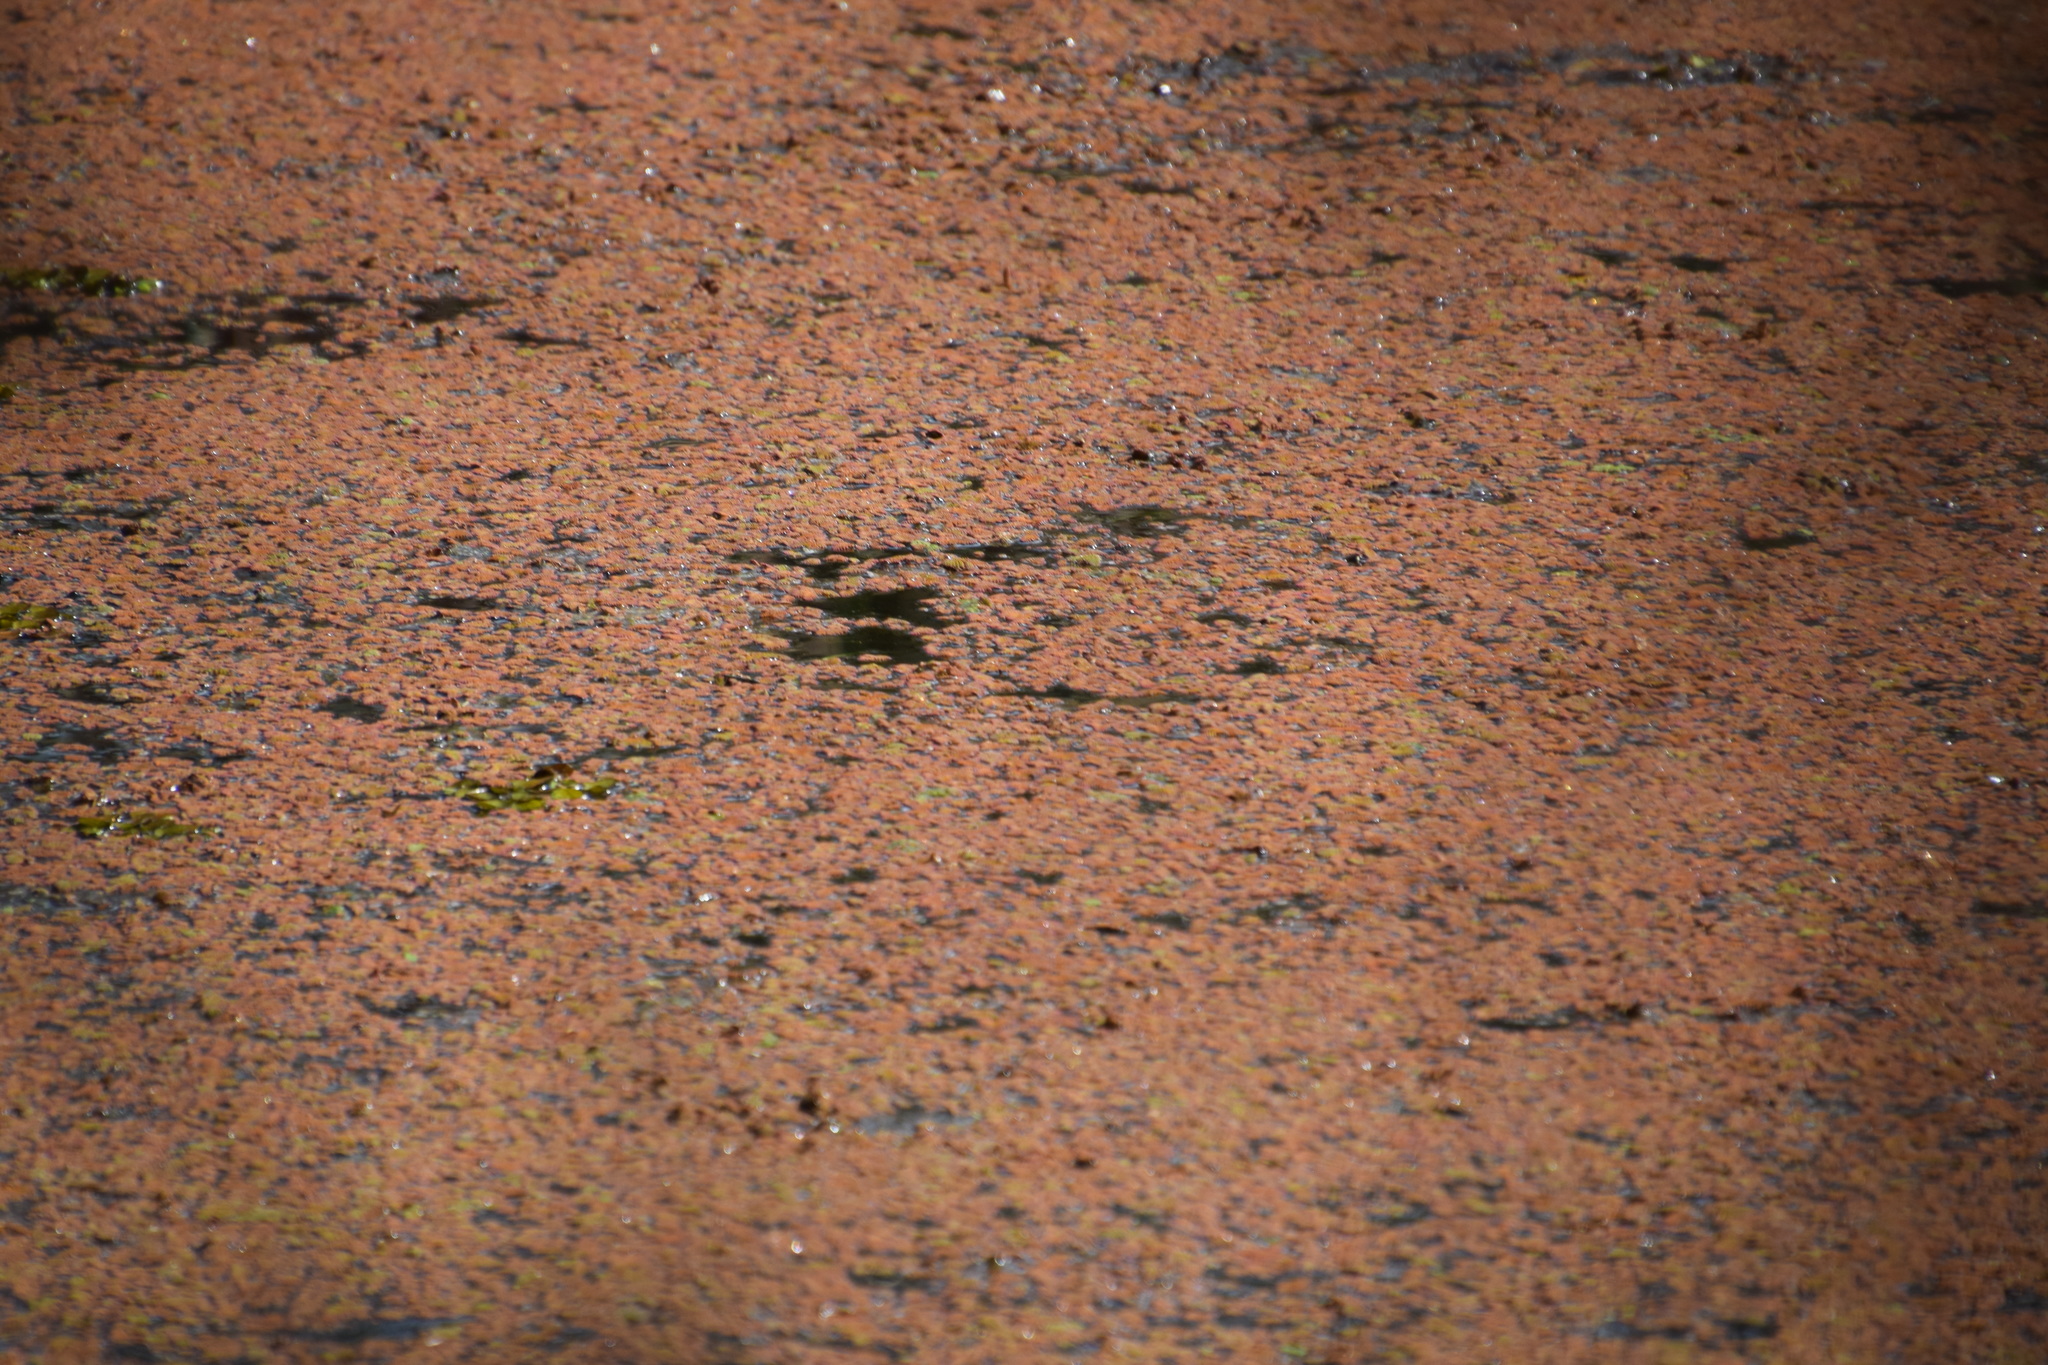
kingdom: Plantae
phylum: Tracheophyta
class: Polypodiopsida
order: Salviniales
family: Salviniaceae
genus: Azolla
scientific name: Azolla rubra
